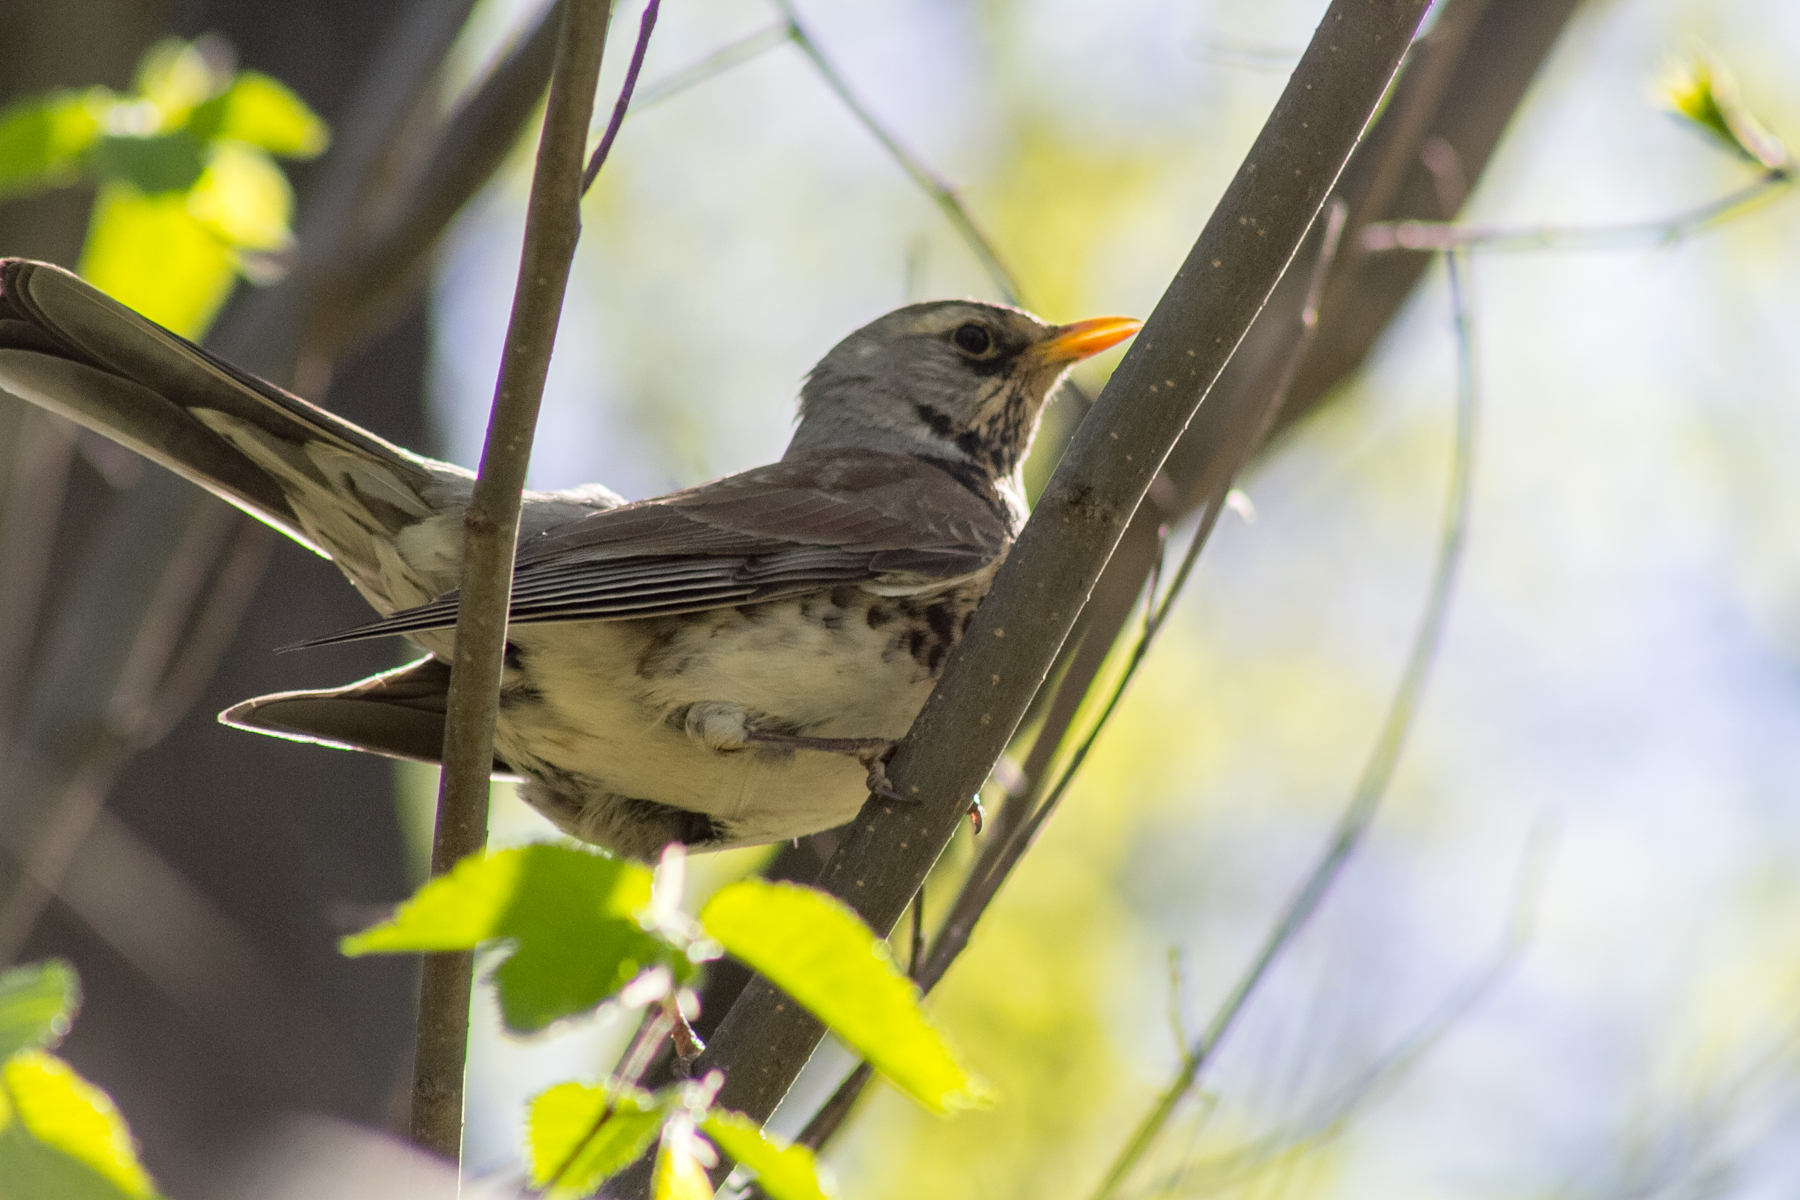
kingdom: Animalia
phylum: Chordata
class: Aves
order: Passeriformes
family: Turdidae
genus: Turdus
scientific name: Turdus pilaris
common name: Fieldfare
